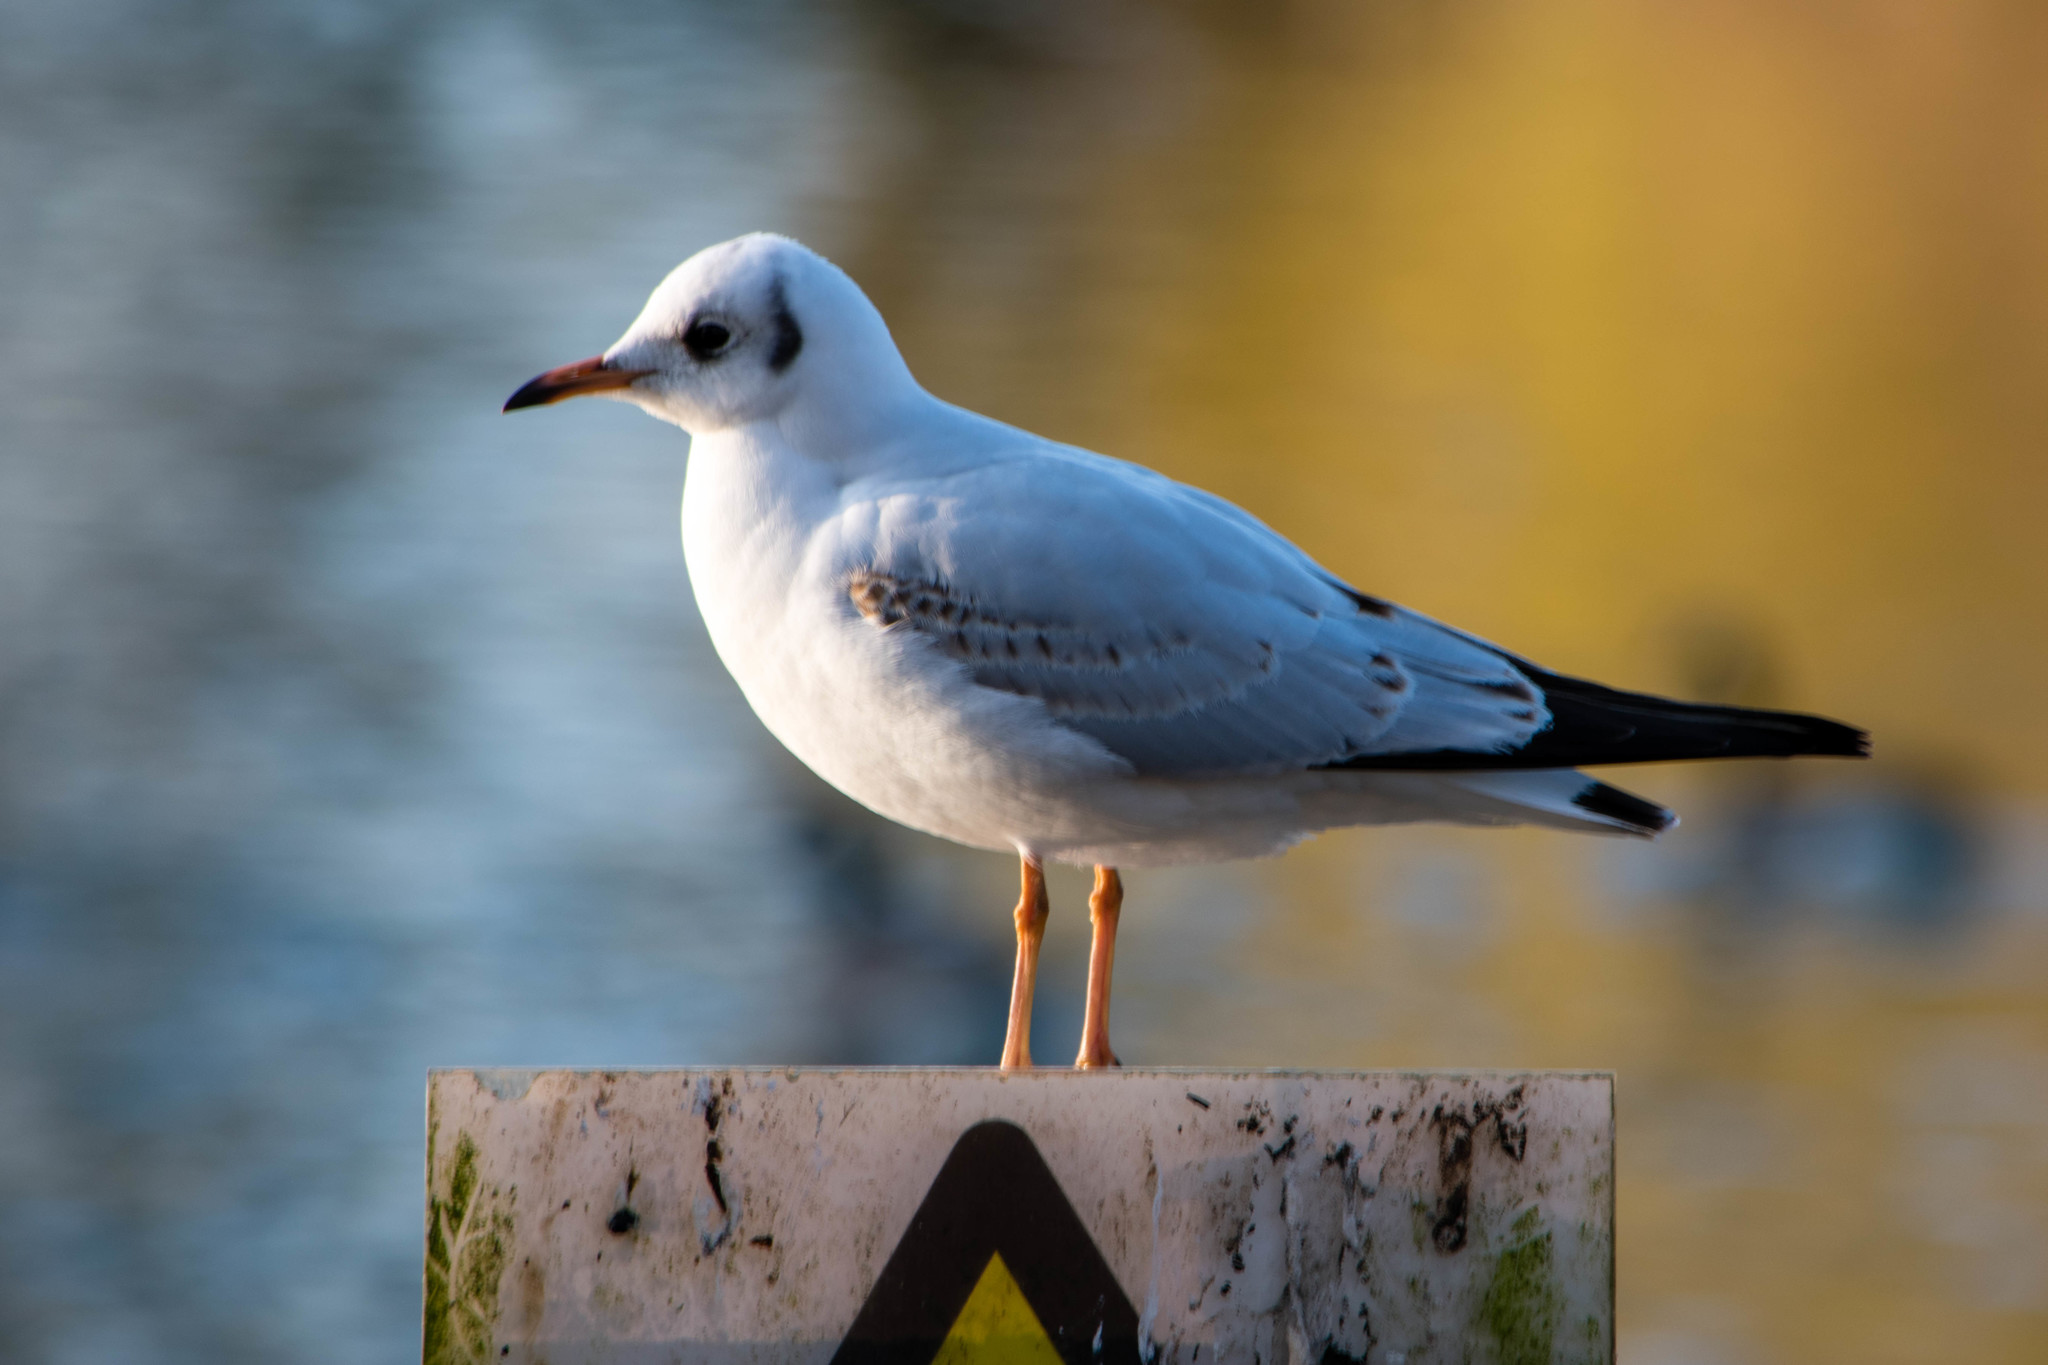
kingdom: Animalia
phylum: Chordata
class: Aves
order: Charadriiformes
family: Laridae
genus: Chroicocephalus
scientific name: Chroicocephalus ridibundus
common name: Black-headed gull
